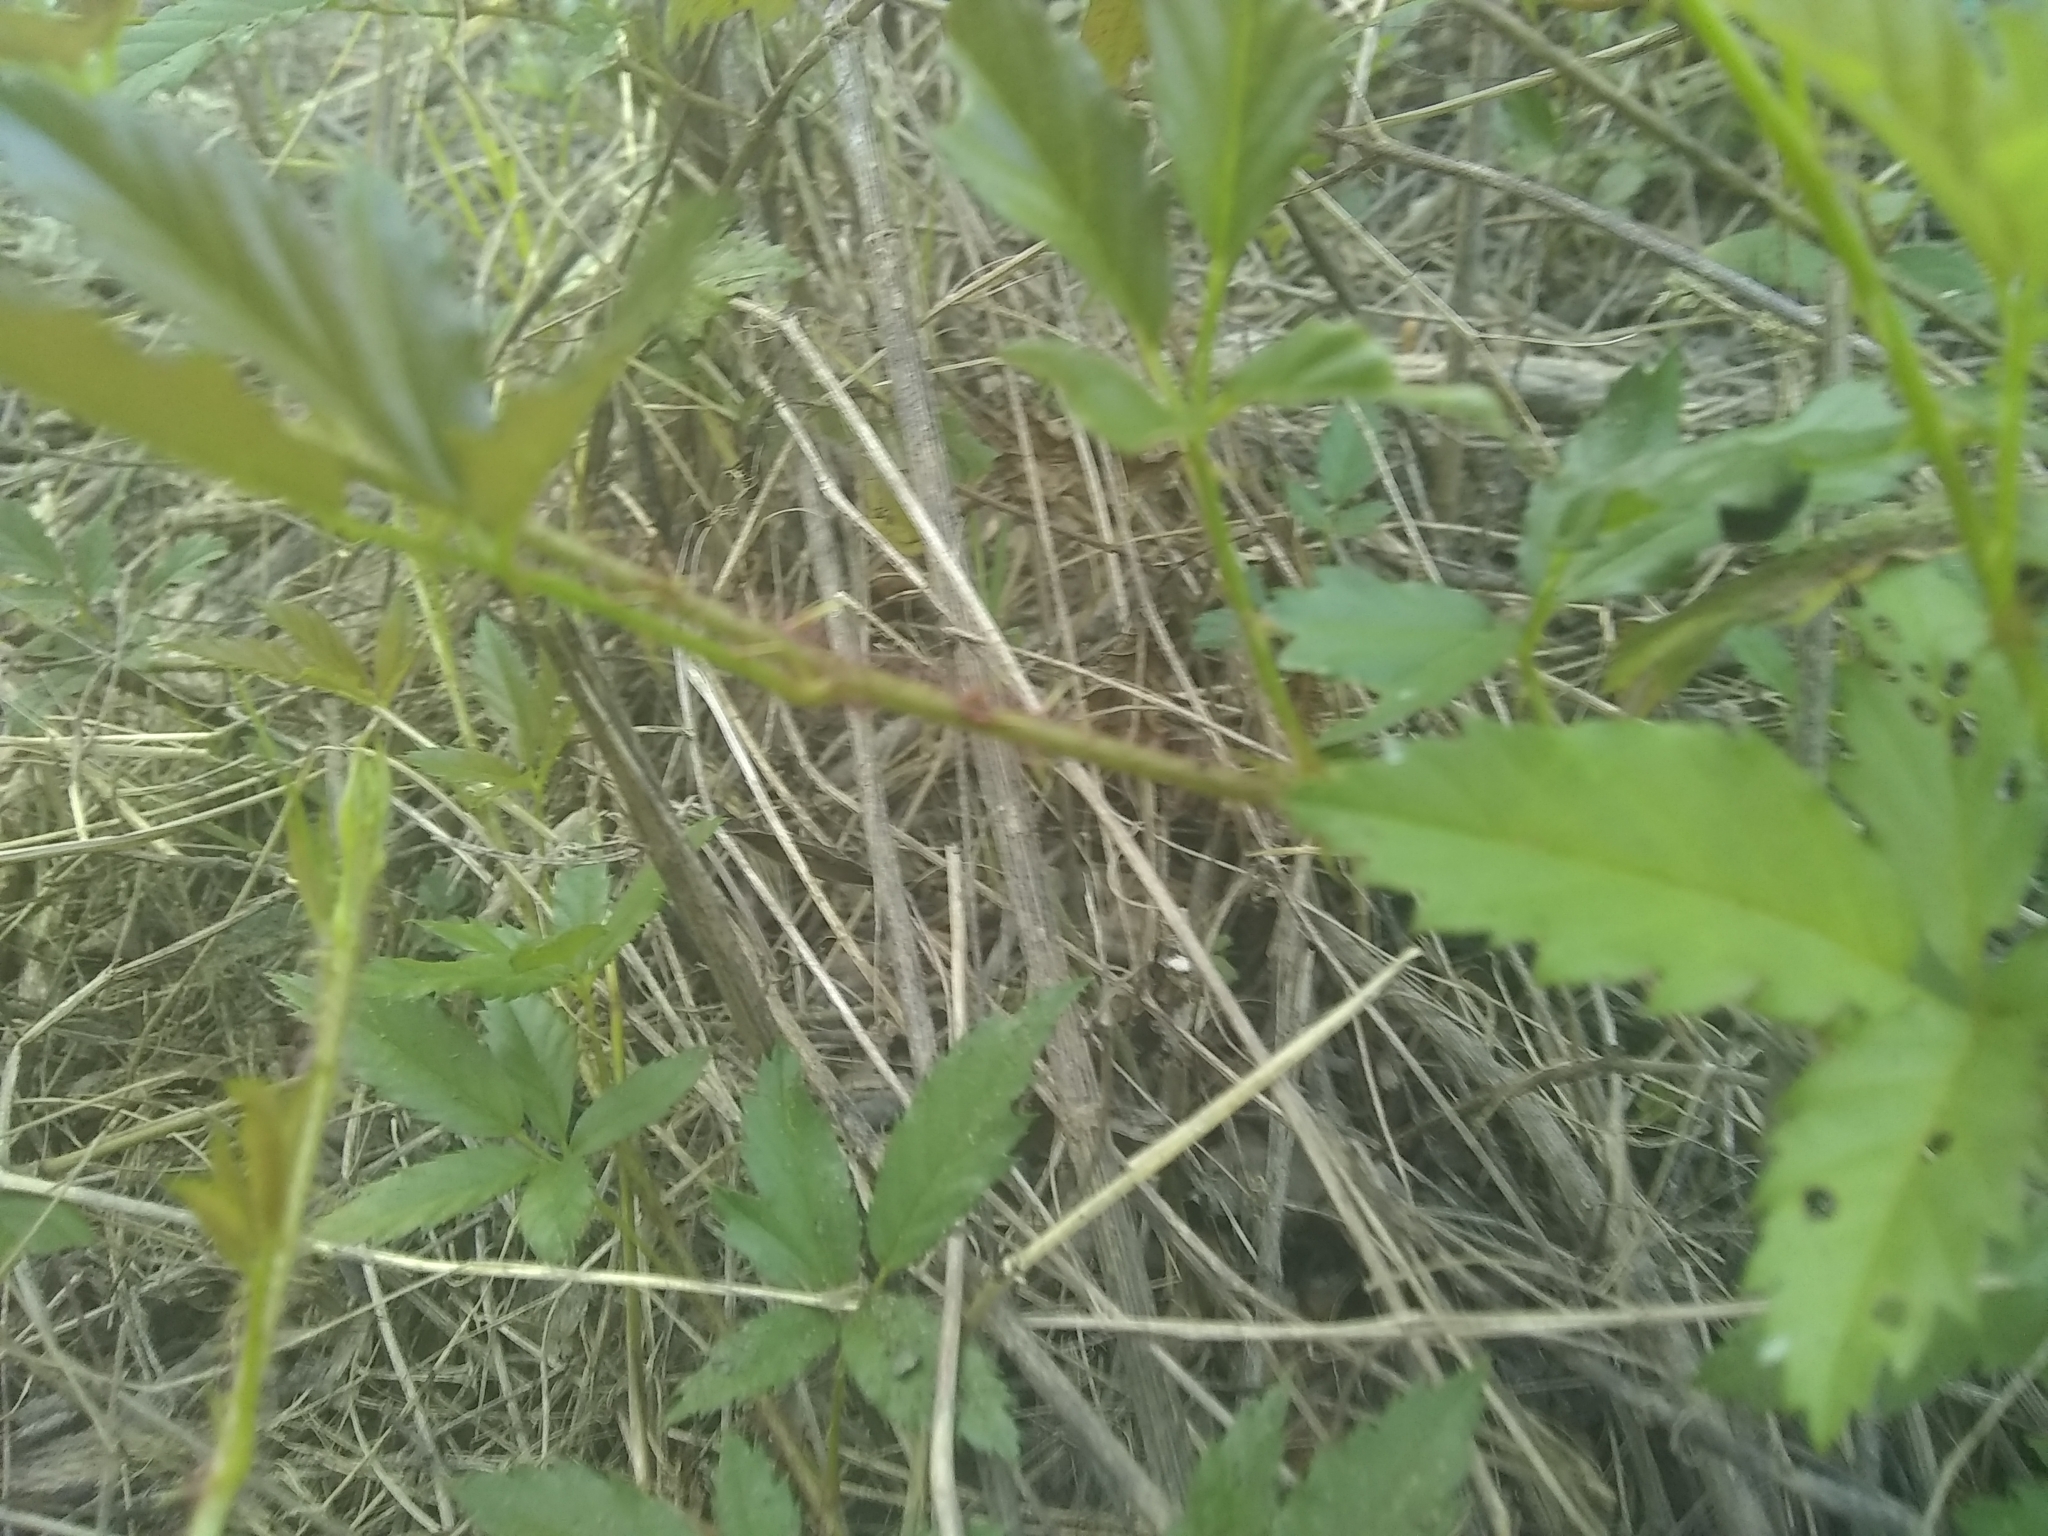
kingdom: Plantae
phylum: Tracheophyta
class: Magnoliopsida
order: Rosales
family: Rosaceae
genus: Rubus
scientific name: Rubus trivialis
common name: Southern dewberry
